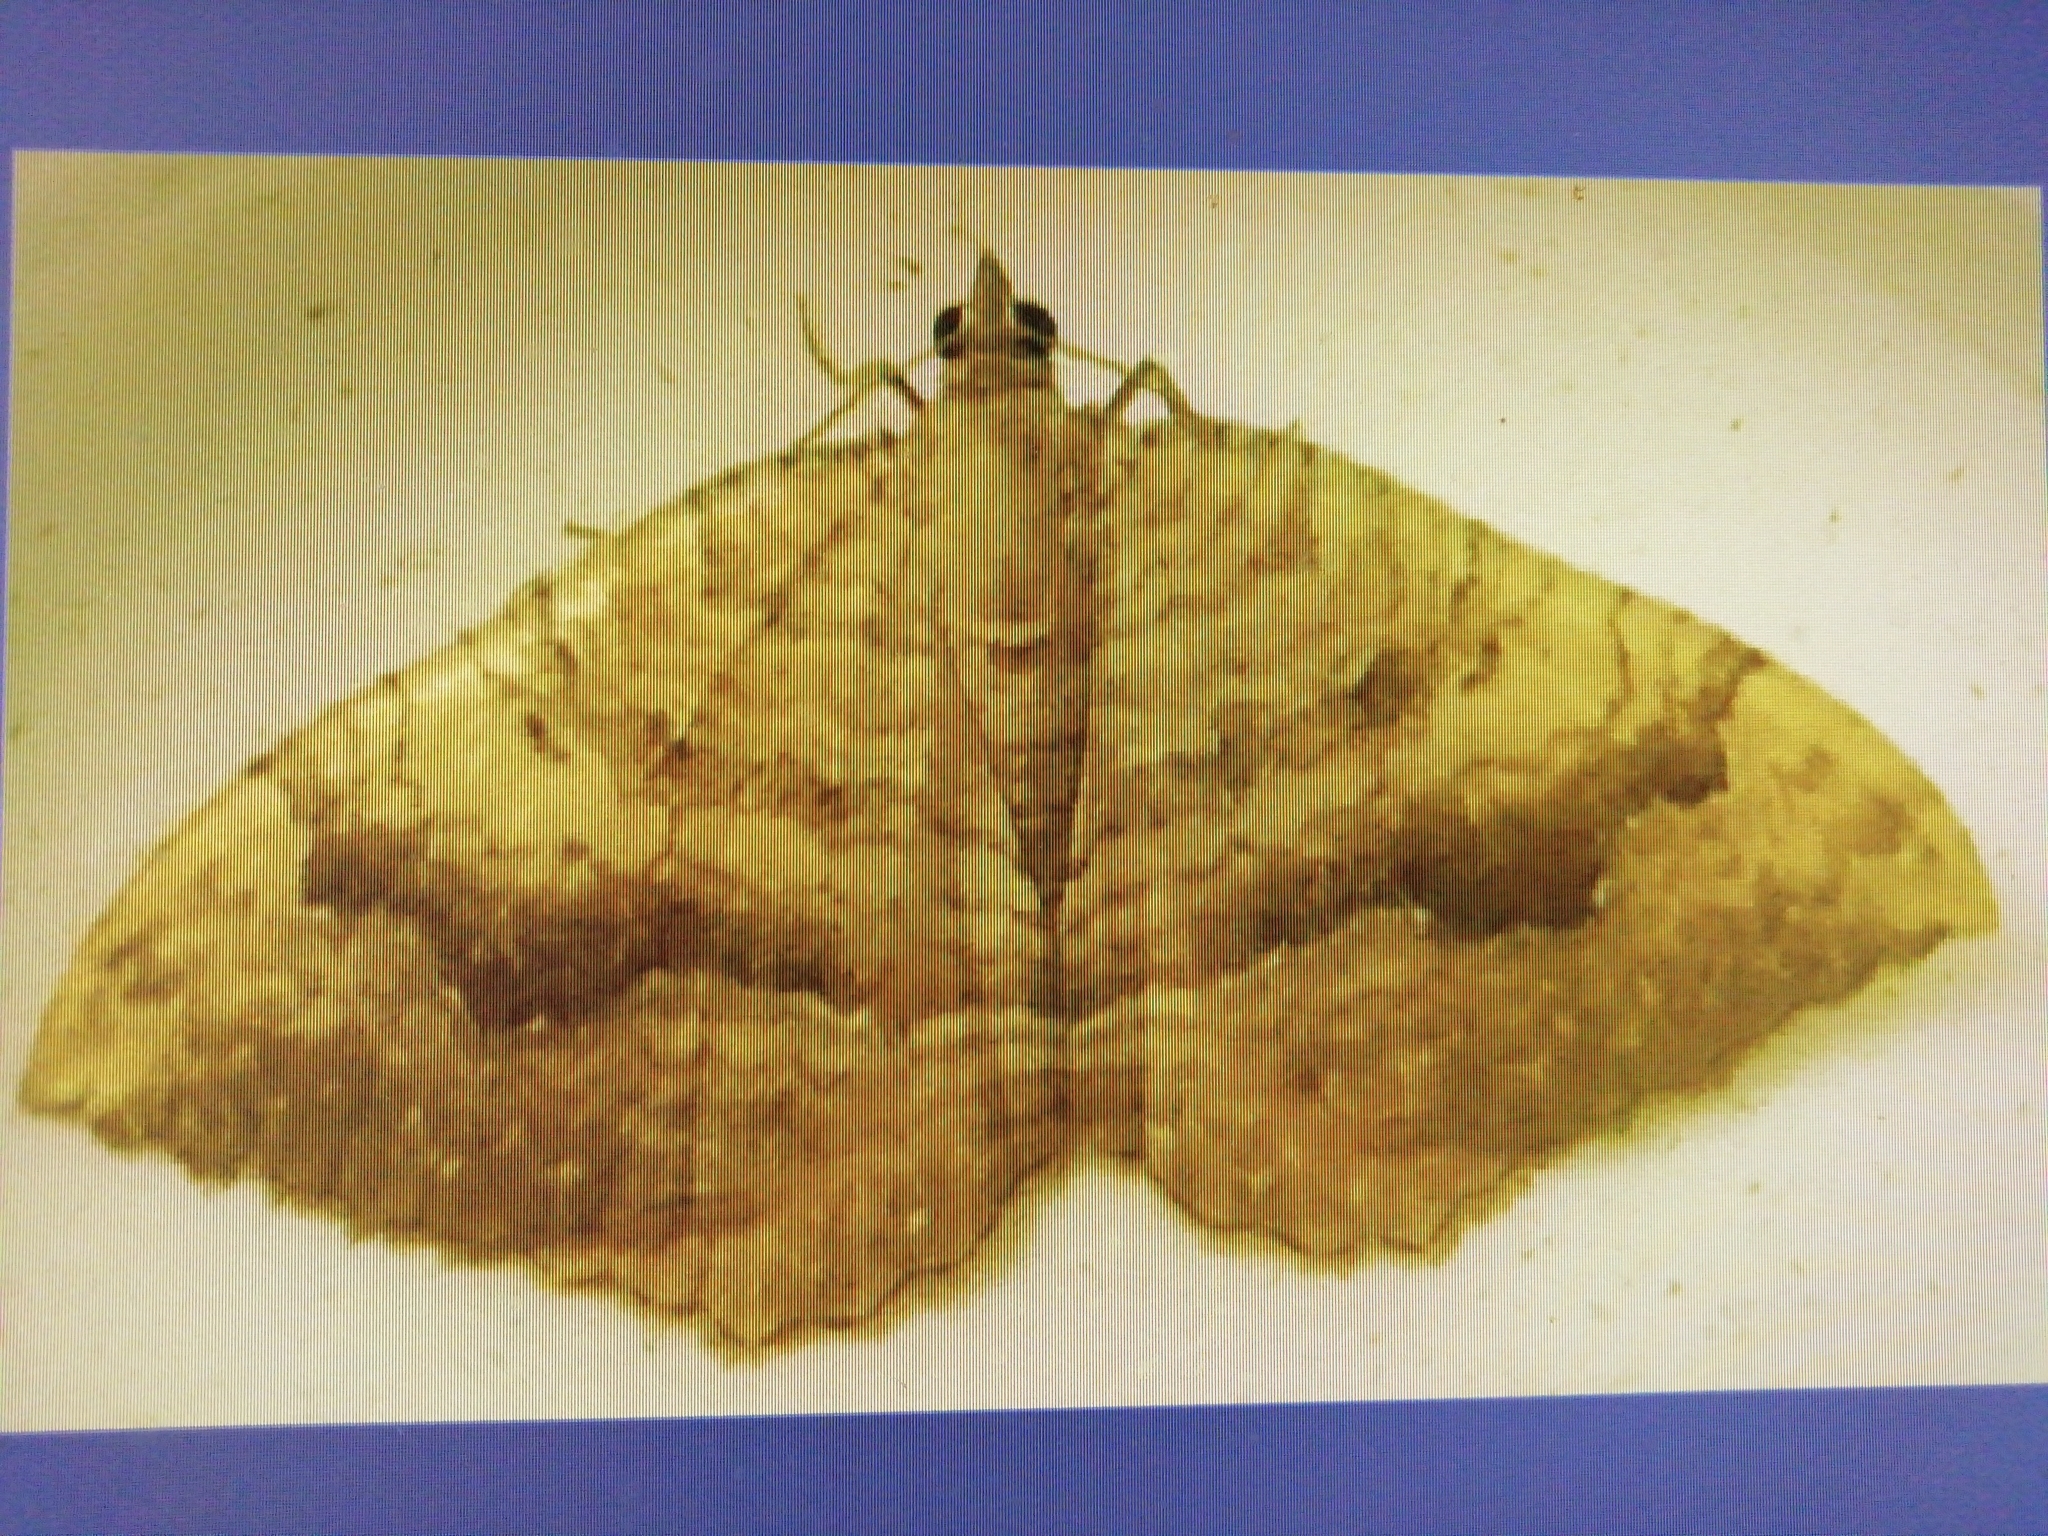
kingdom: Animalia
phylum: Arthropoda
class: Insecta
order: Lepidoptera
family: Geometridae
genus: Camptogramma
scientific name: Camptogramma bilineata
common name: Yellow shell
